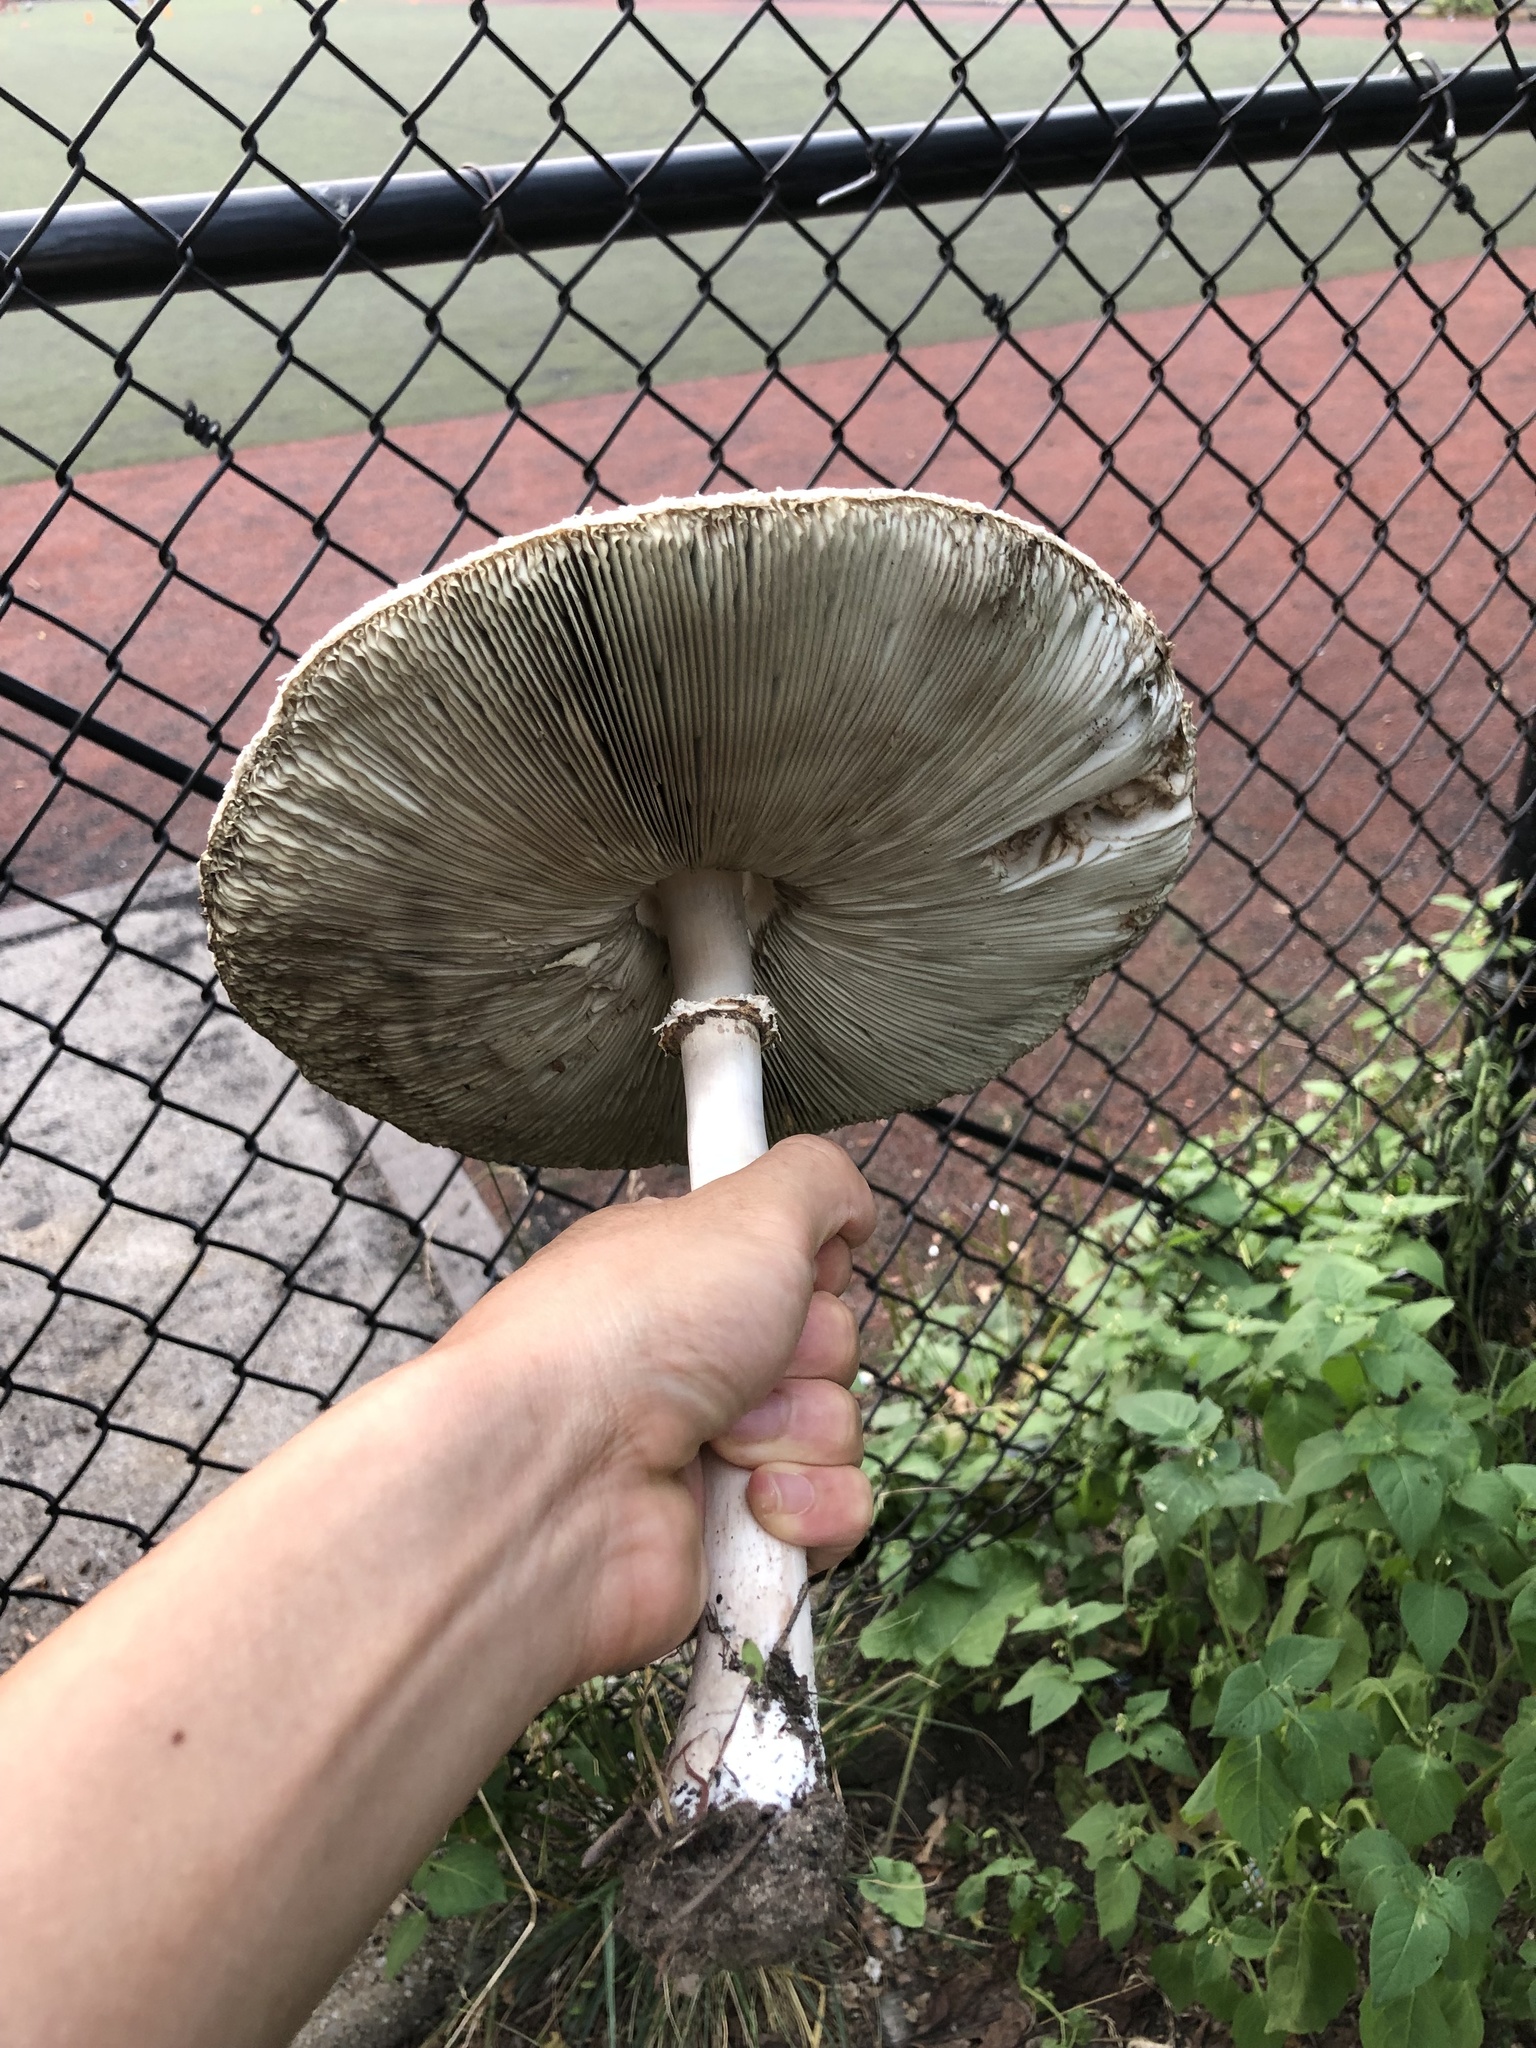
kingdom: Fungi
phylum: Basidiomycota
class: Agaricomycetes
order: Agaricales
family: Agaricaceae
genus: Chlorophyllum
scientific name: Chlorophyllum molybdites
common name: False parasol
